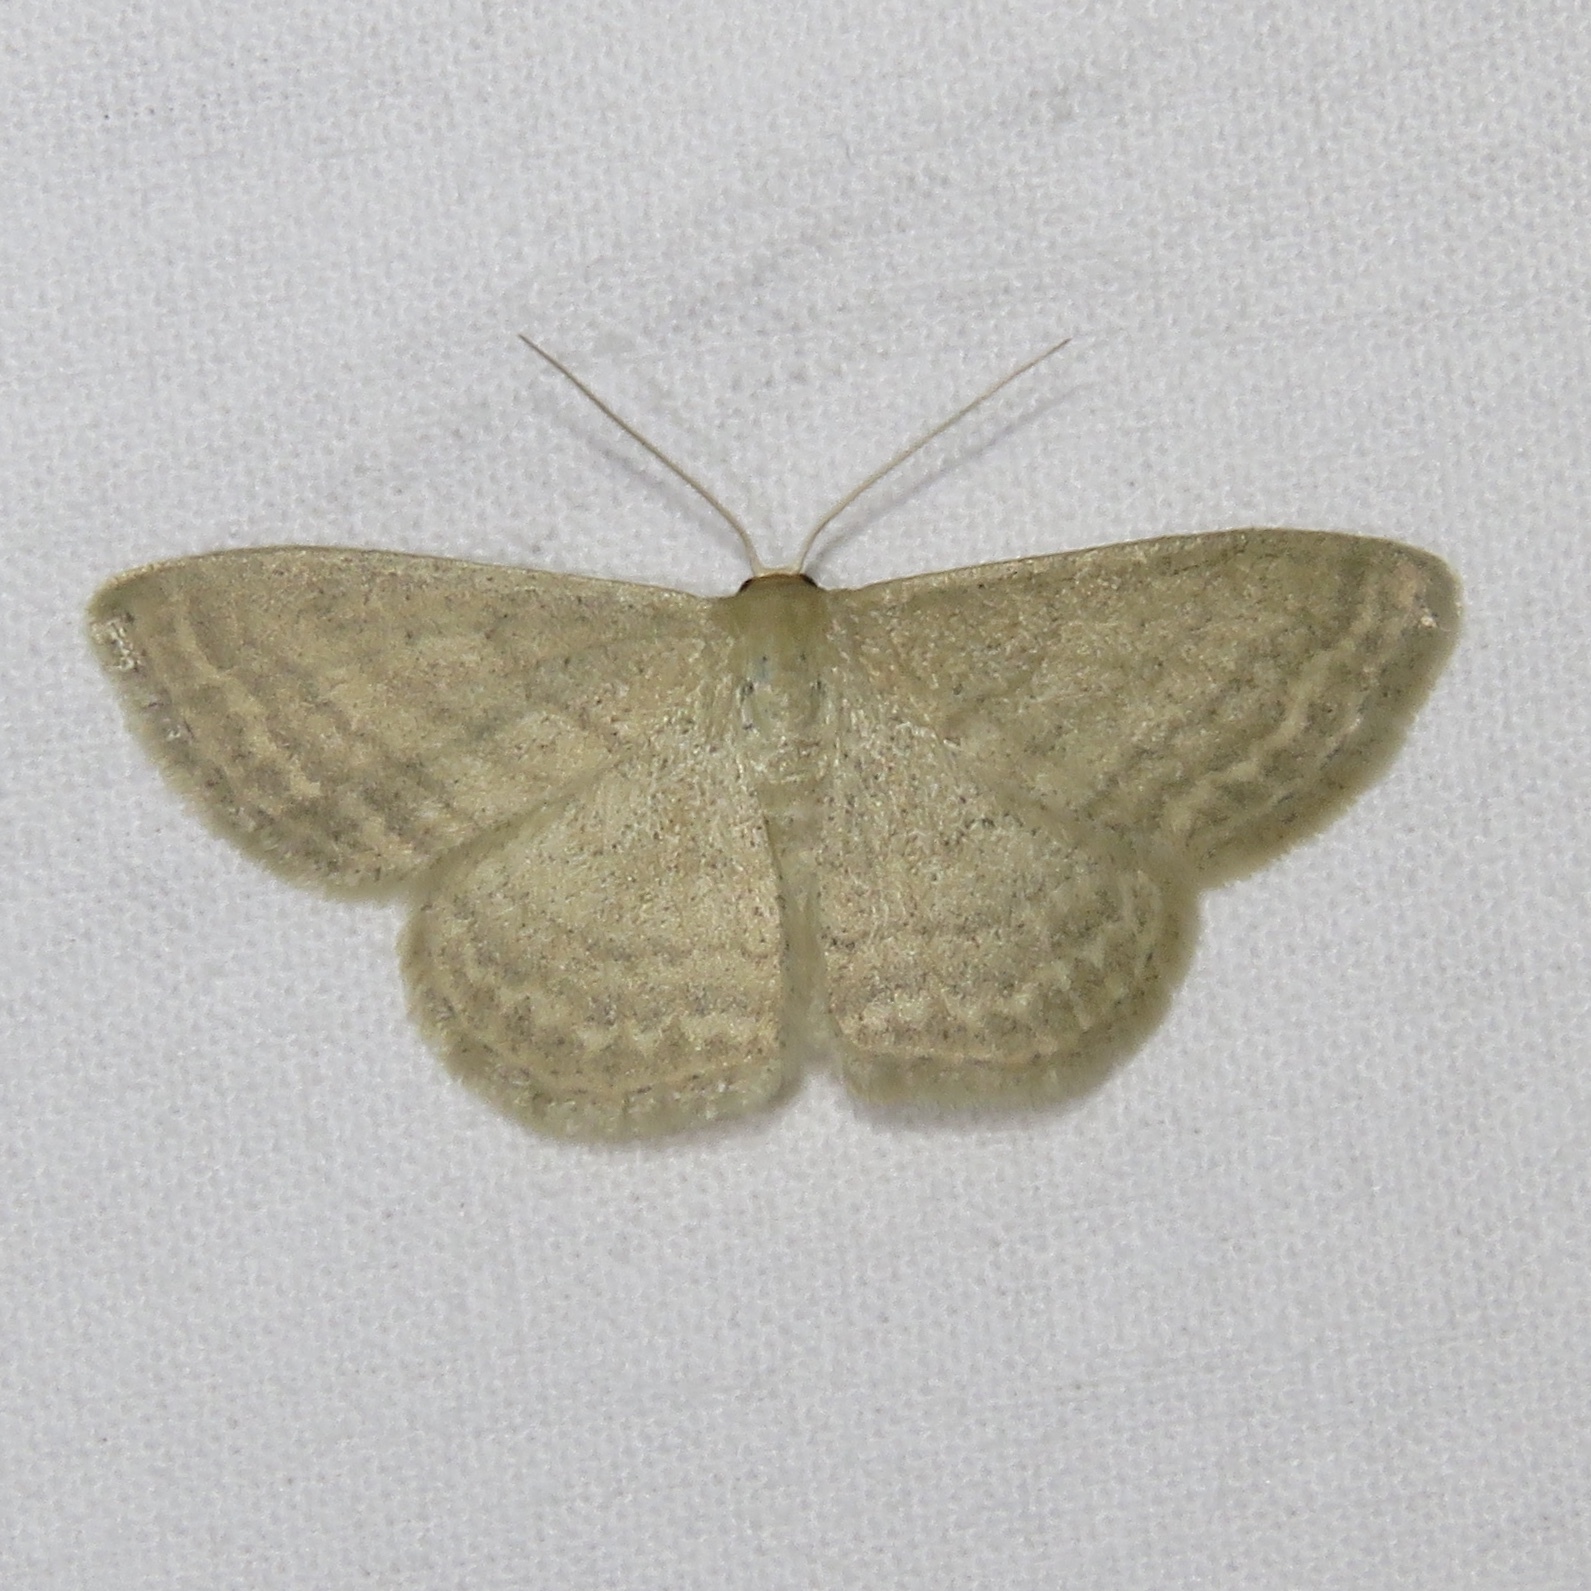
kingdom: Animalia
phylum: Arthropoda
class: Insecta
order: Lepidoptera
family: Geometridae
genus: Scopula
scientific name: Scopula inductata
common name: Soft-lined wave
